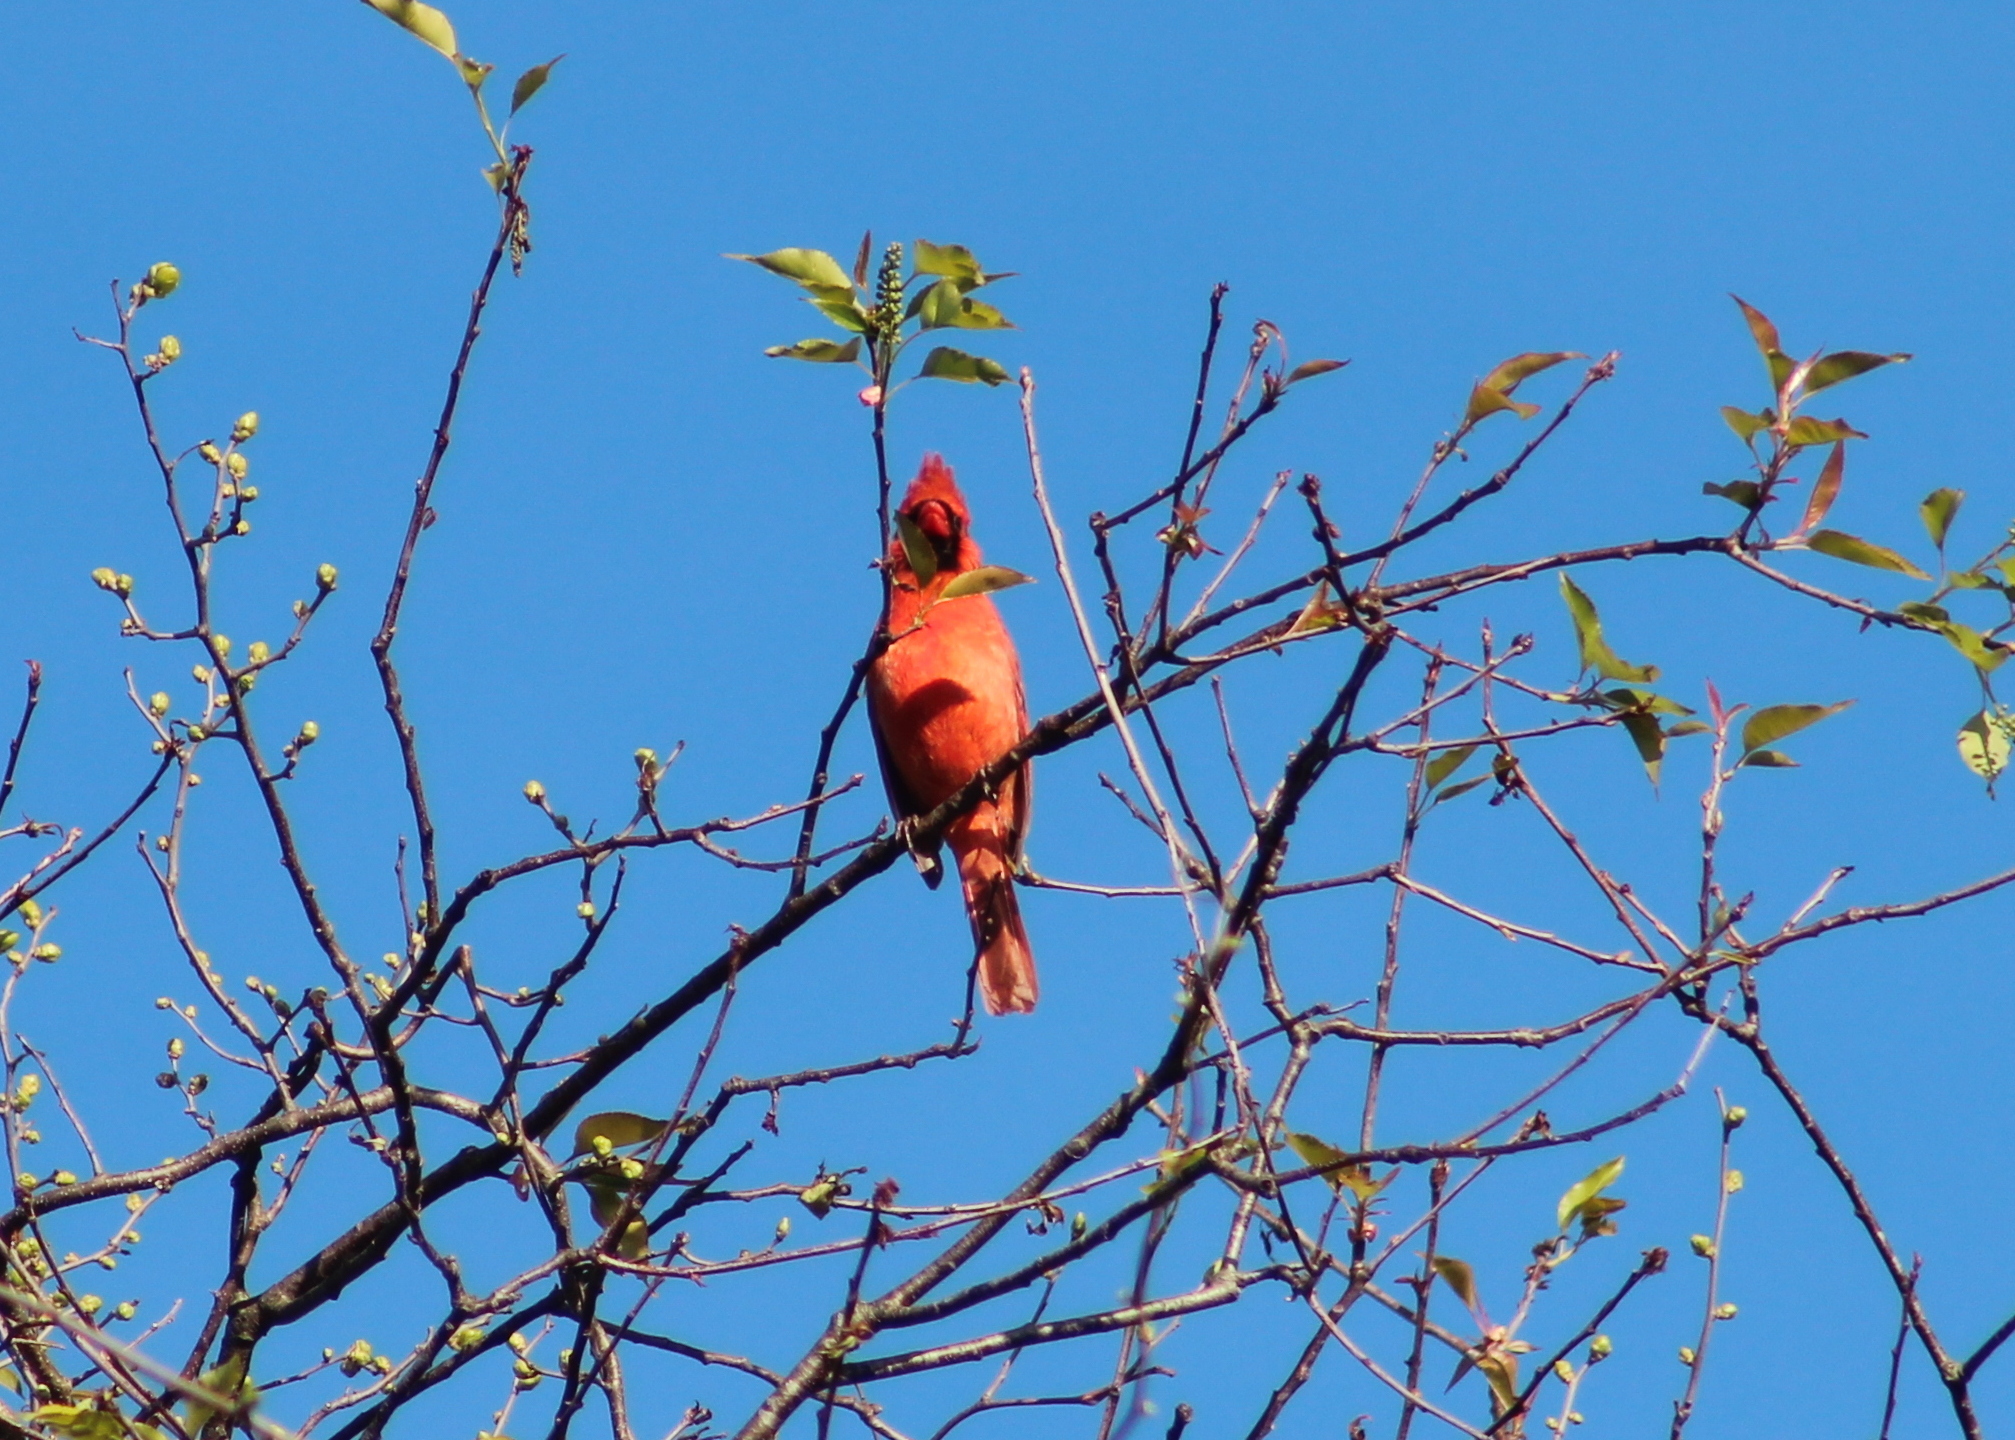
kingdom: Animalia
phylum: Chordata
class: Aves
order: Passeriformes
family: Cardinalidae
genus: Cardinalis
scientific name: Cardinalis cardinalis
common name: Northern cardinal
